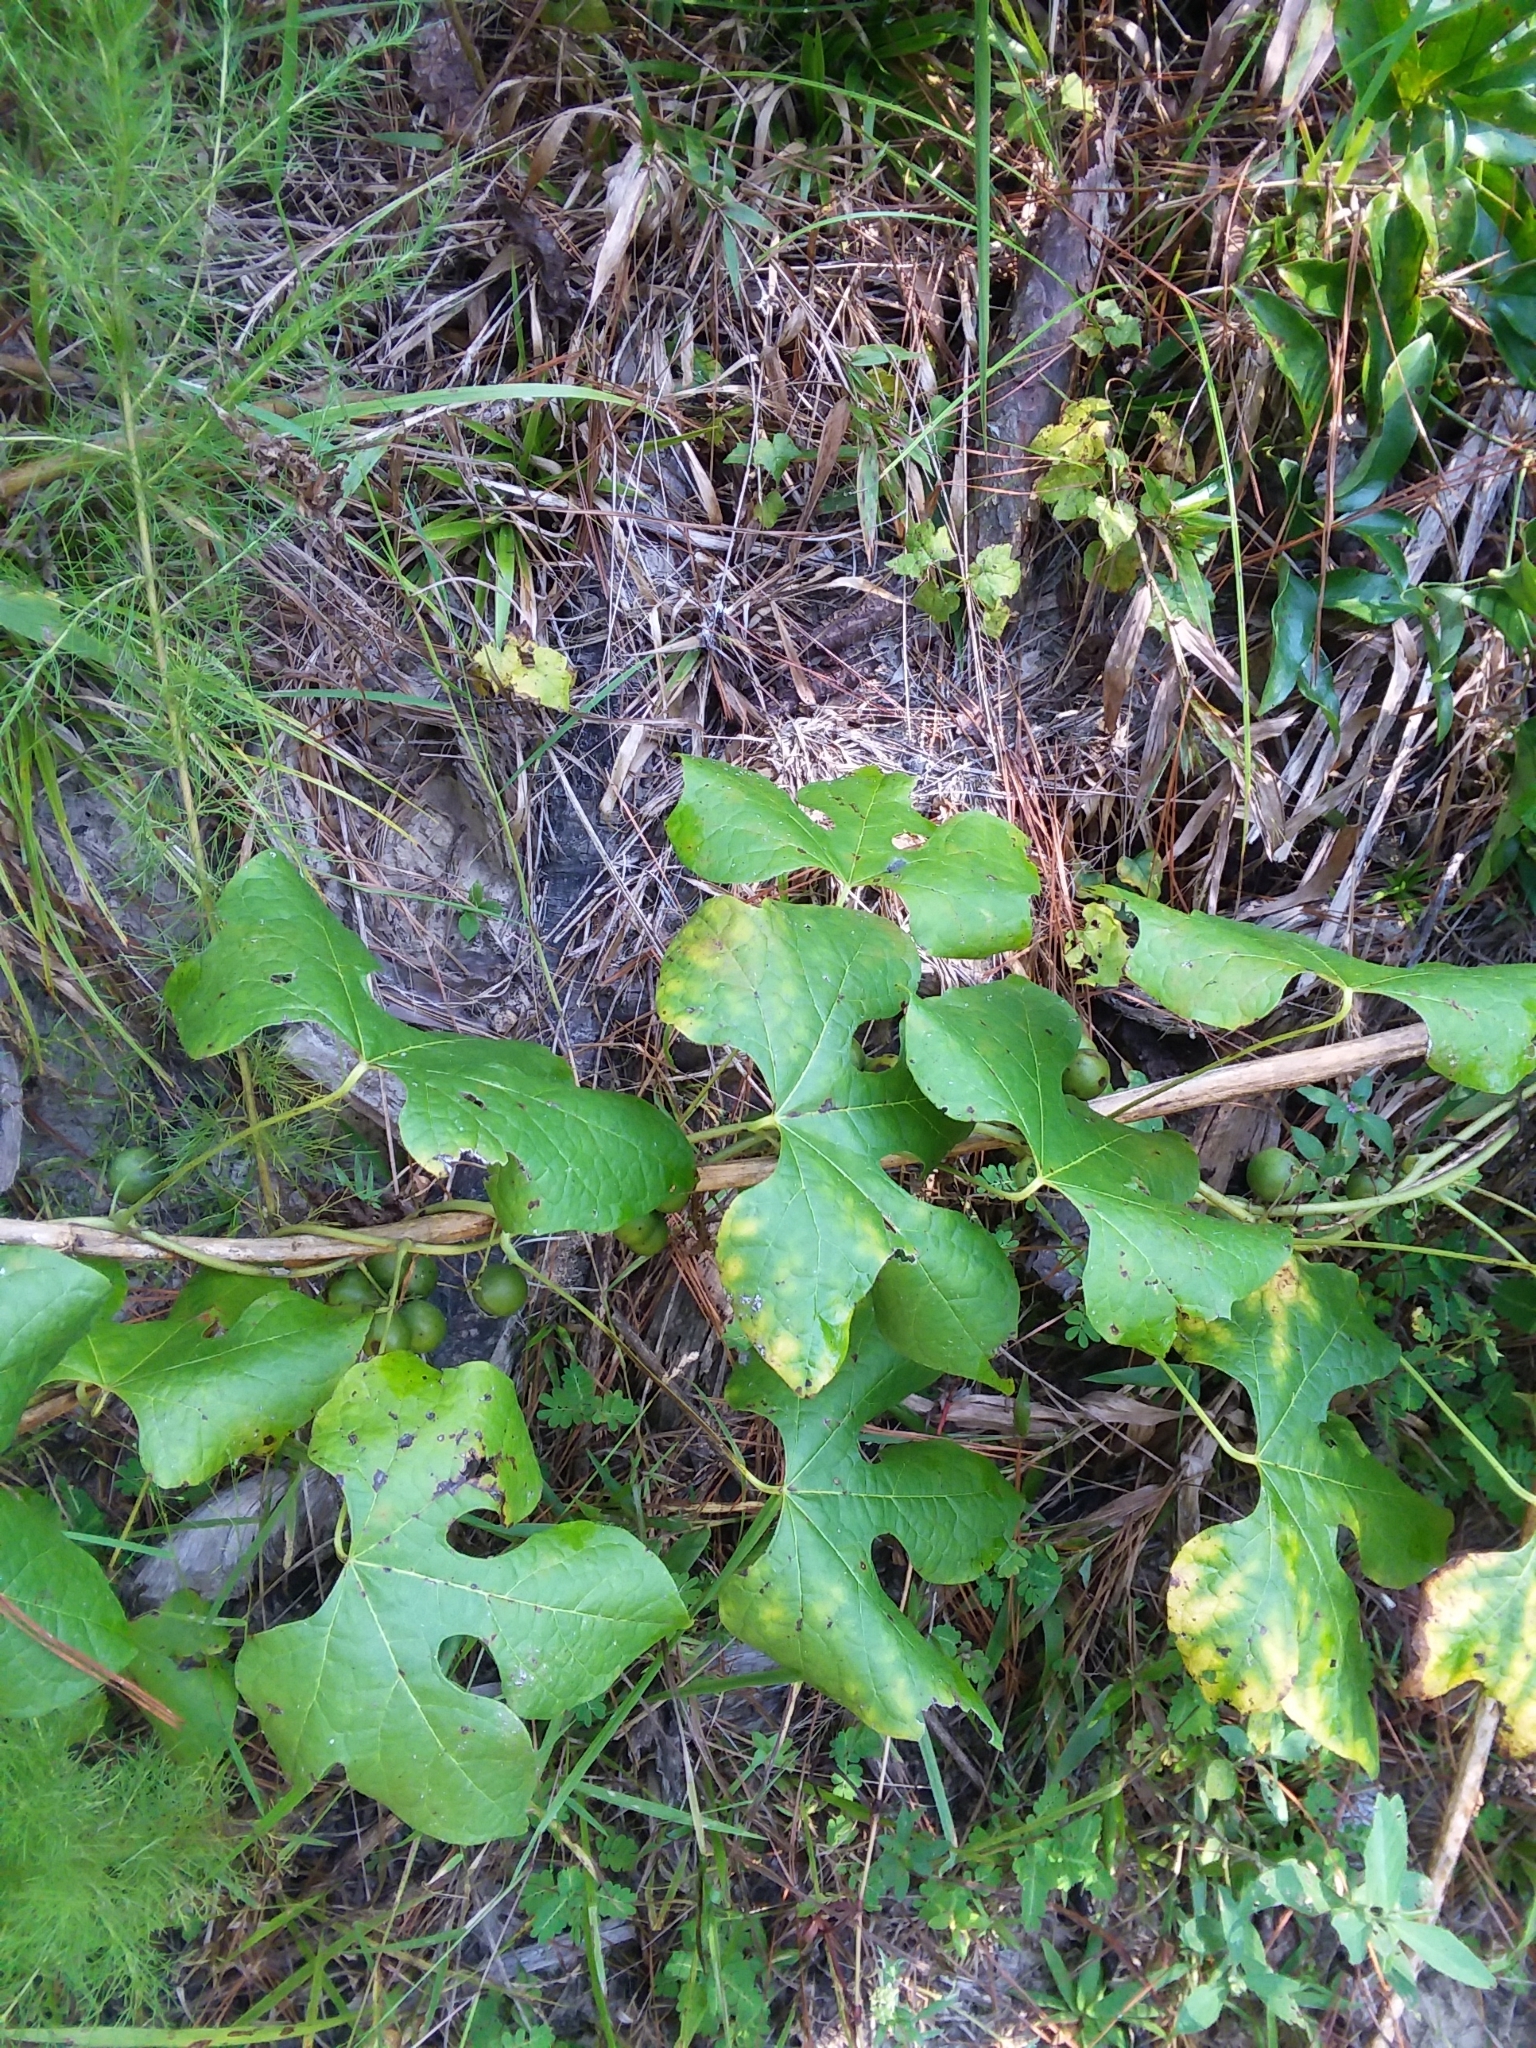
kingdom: Plantae
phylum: Tracheophyta
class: Magnoliopsida
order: Ranunculales
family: Menispermaceae
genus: Calycocarpum
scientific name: Calycocarpum lyonii
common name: Cupseed
